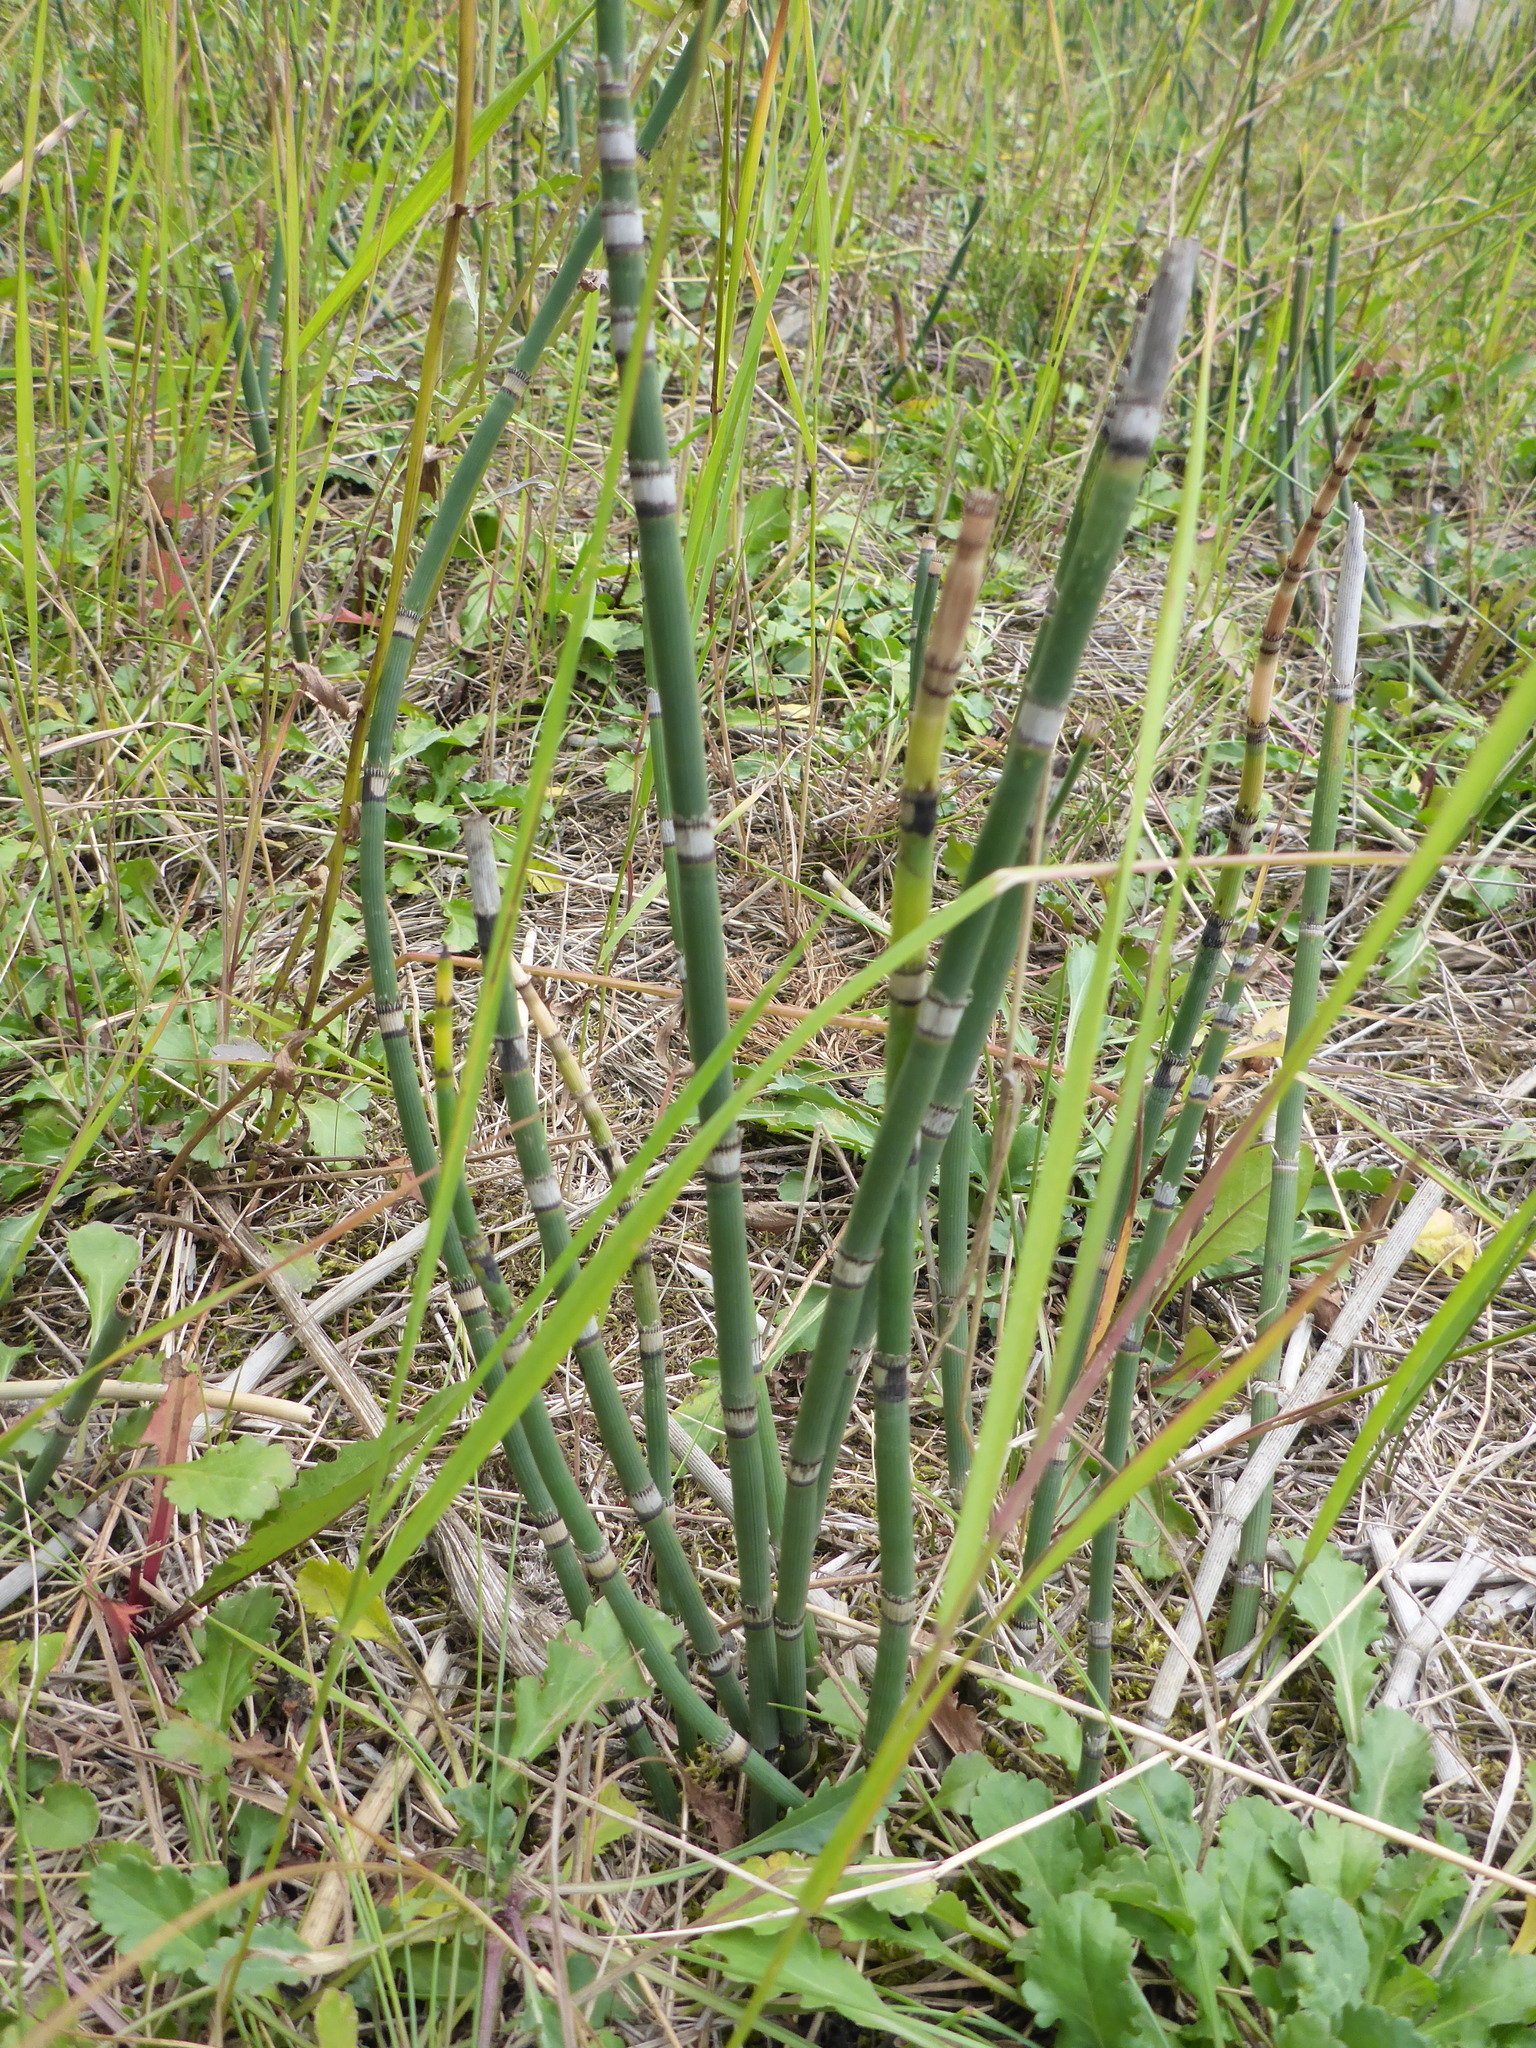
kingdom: Plantae
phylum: Tracheophyta
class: Polypodiopsida
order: Equisetales
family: Equisetaceae
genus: Equisetum
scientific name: Equisetum hyemale
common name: Rough horsetail
